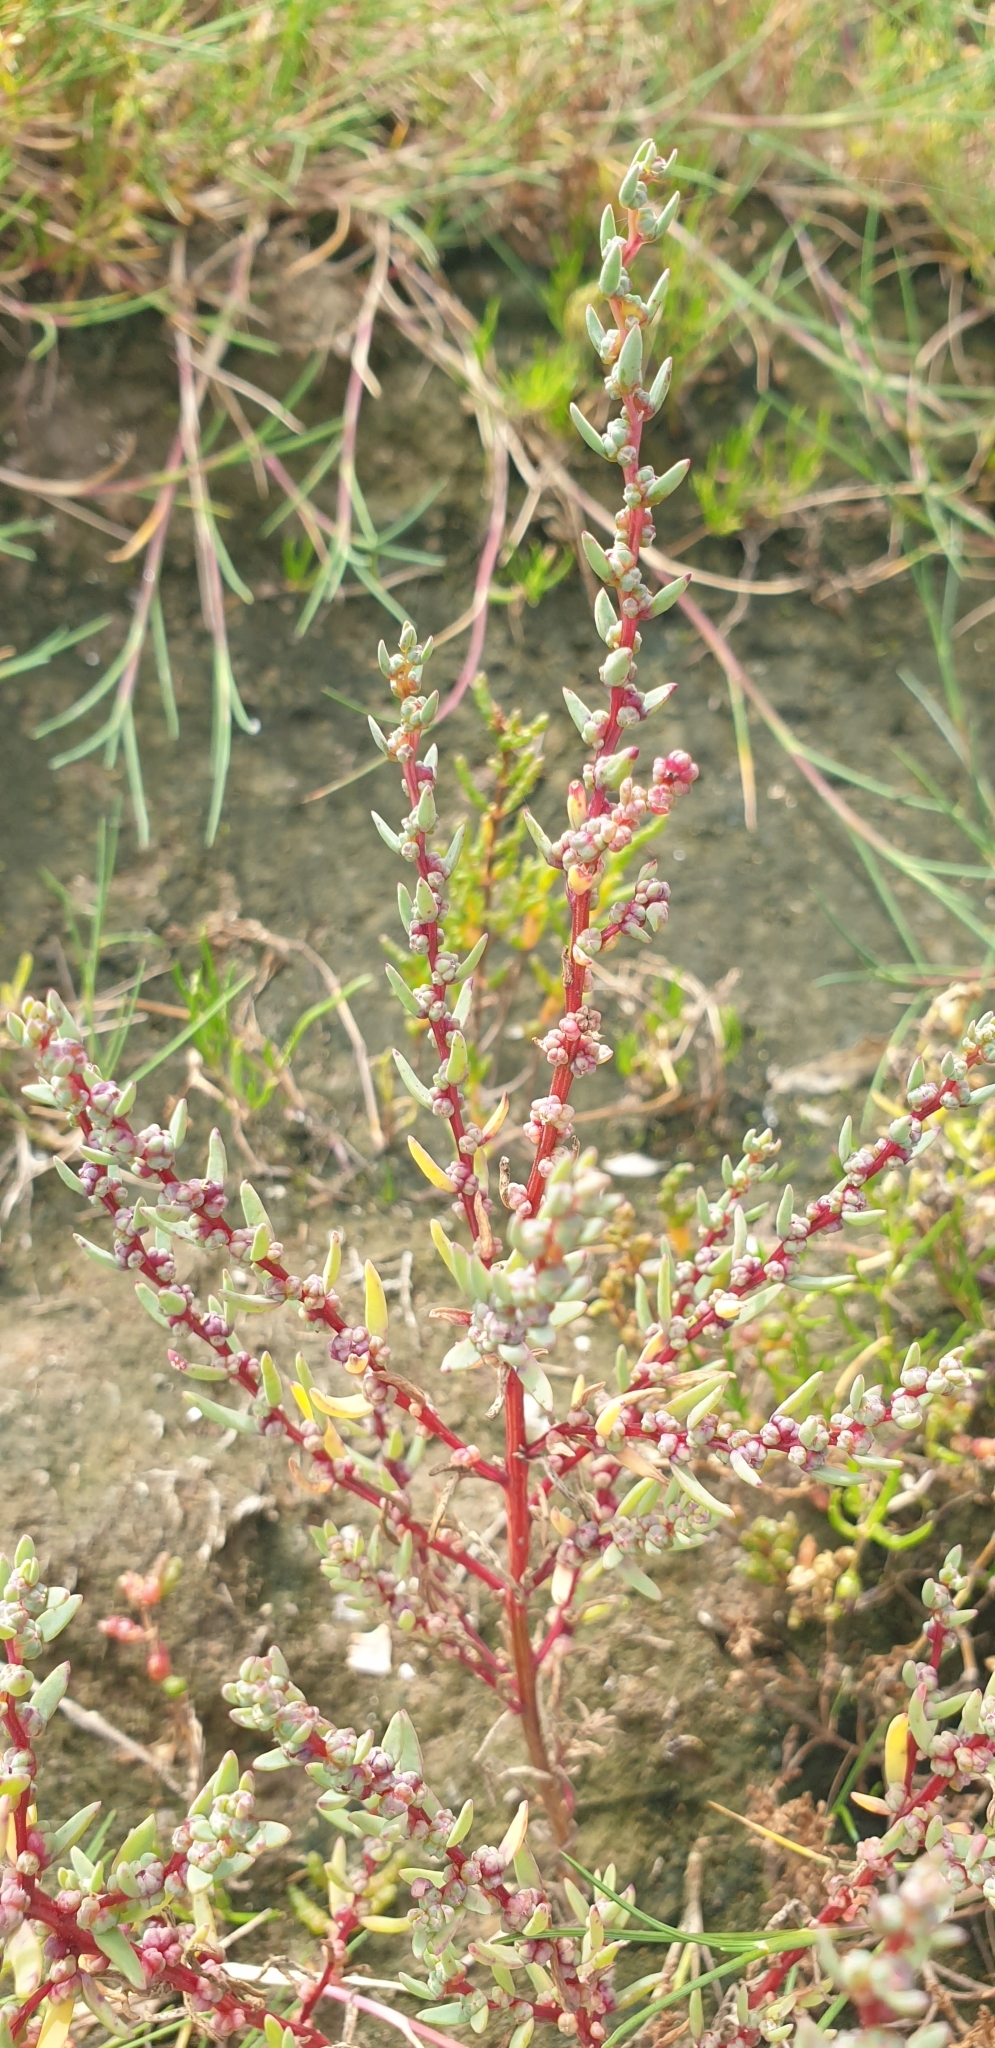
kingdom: Plantae
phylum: Tracheophyta
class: Magnoliopsida
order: Caryophyllales
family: Amaranthaceae
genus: Suaeda
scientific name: Suaeda maritima
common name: Annual sea-blite
